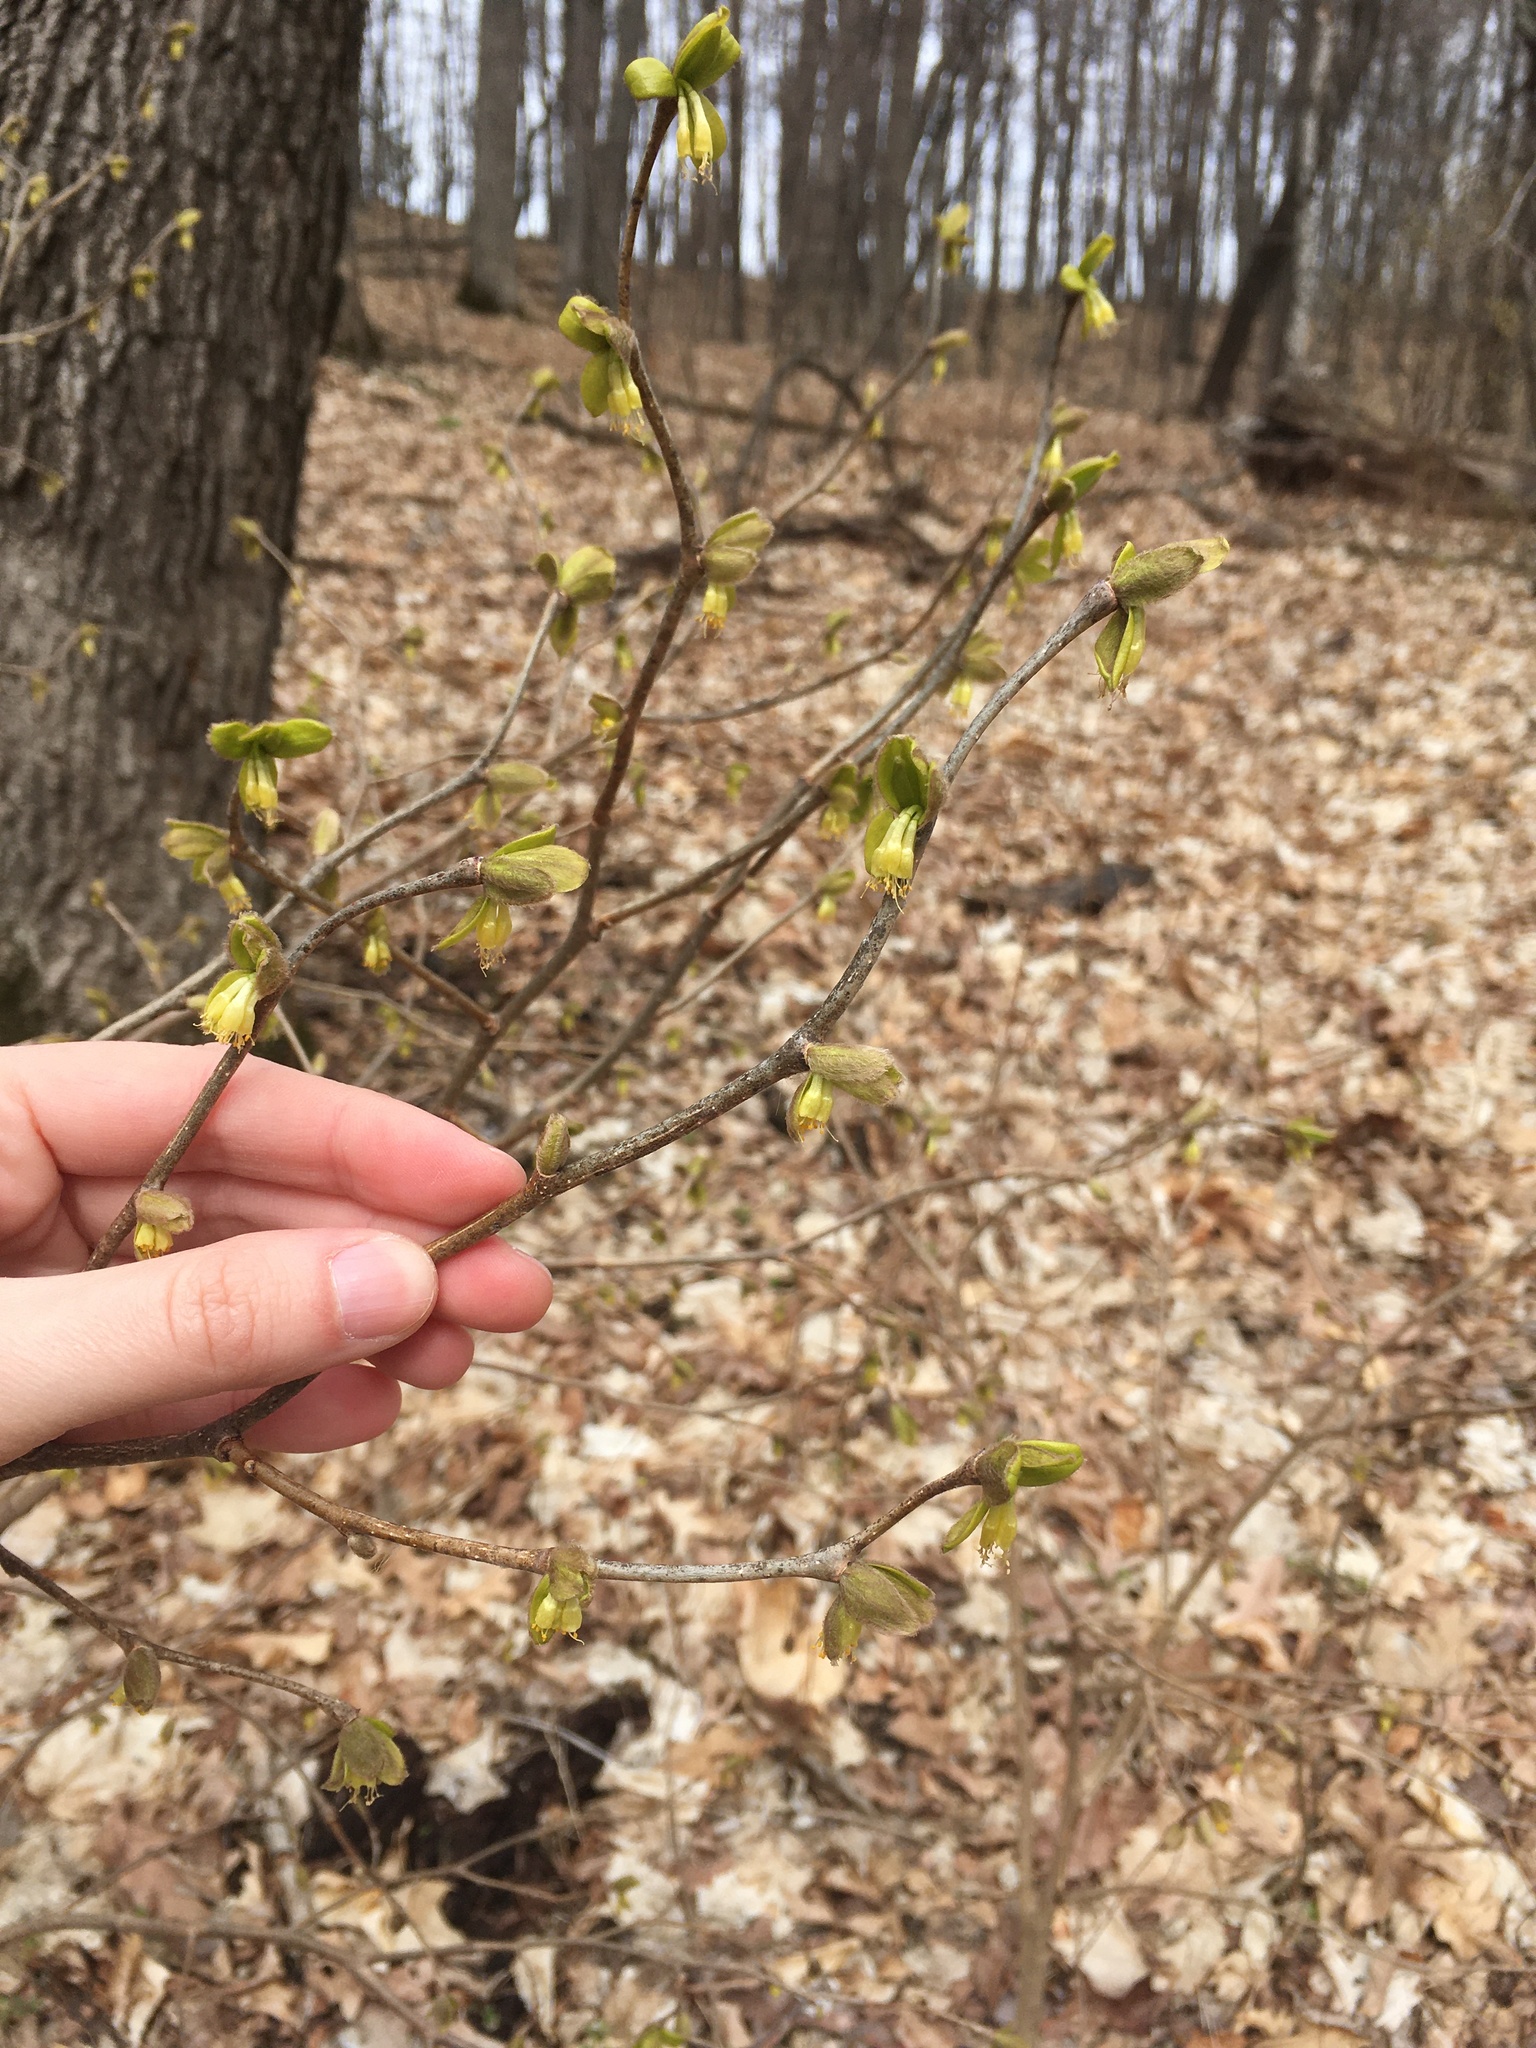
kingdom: Plantae
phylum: Tracheophyta
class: Magnoliopsida
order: Malvales
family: Thymelaeaceae
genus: Dirca
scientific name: Dirca palustris
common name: Leatherwood
